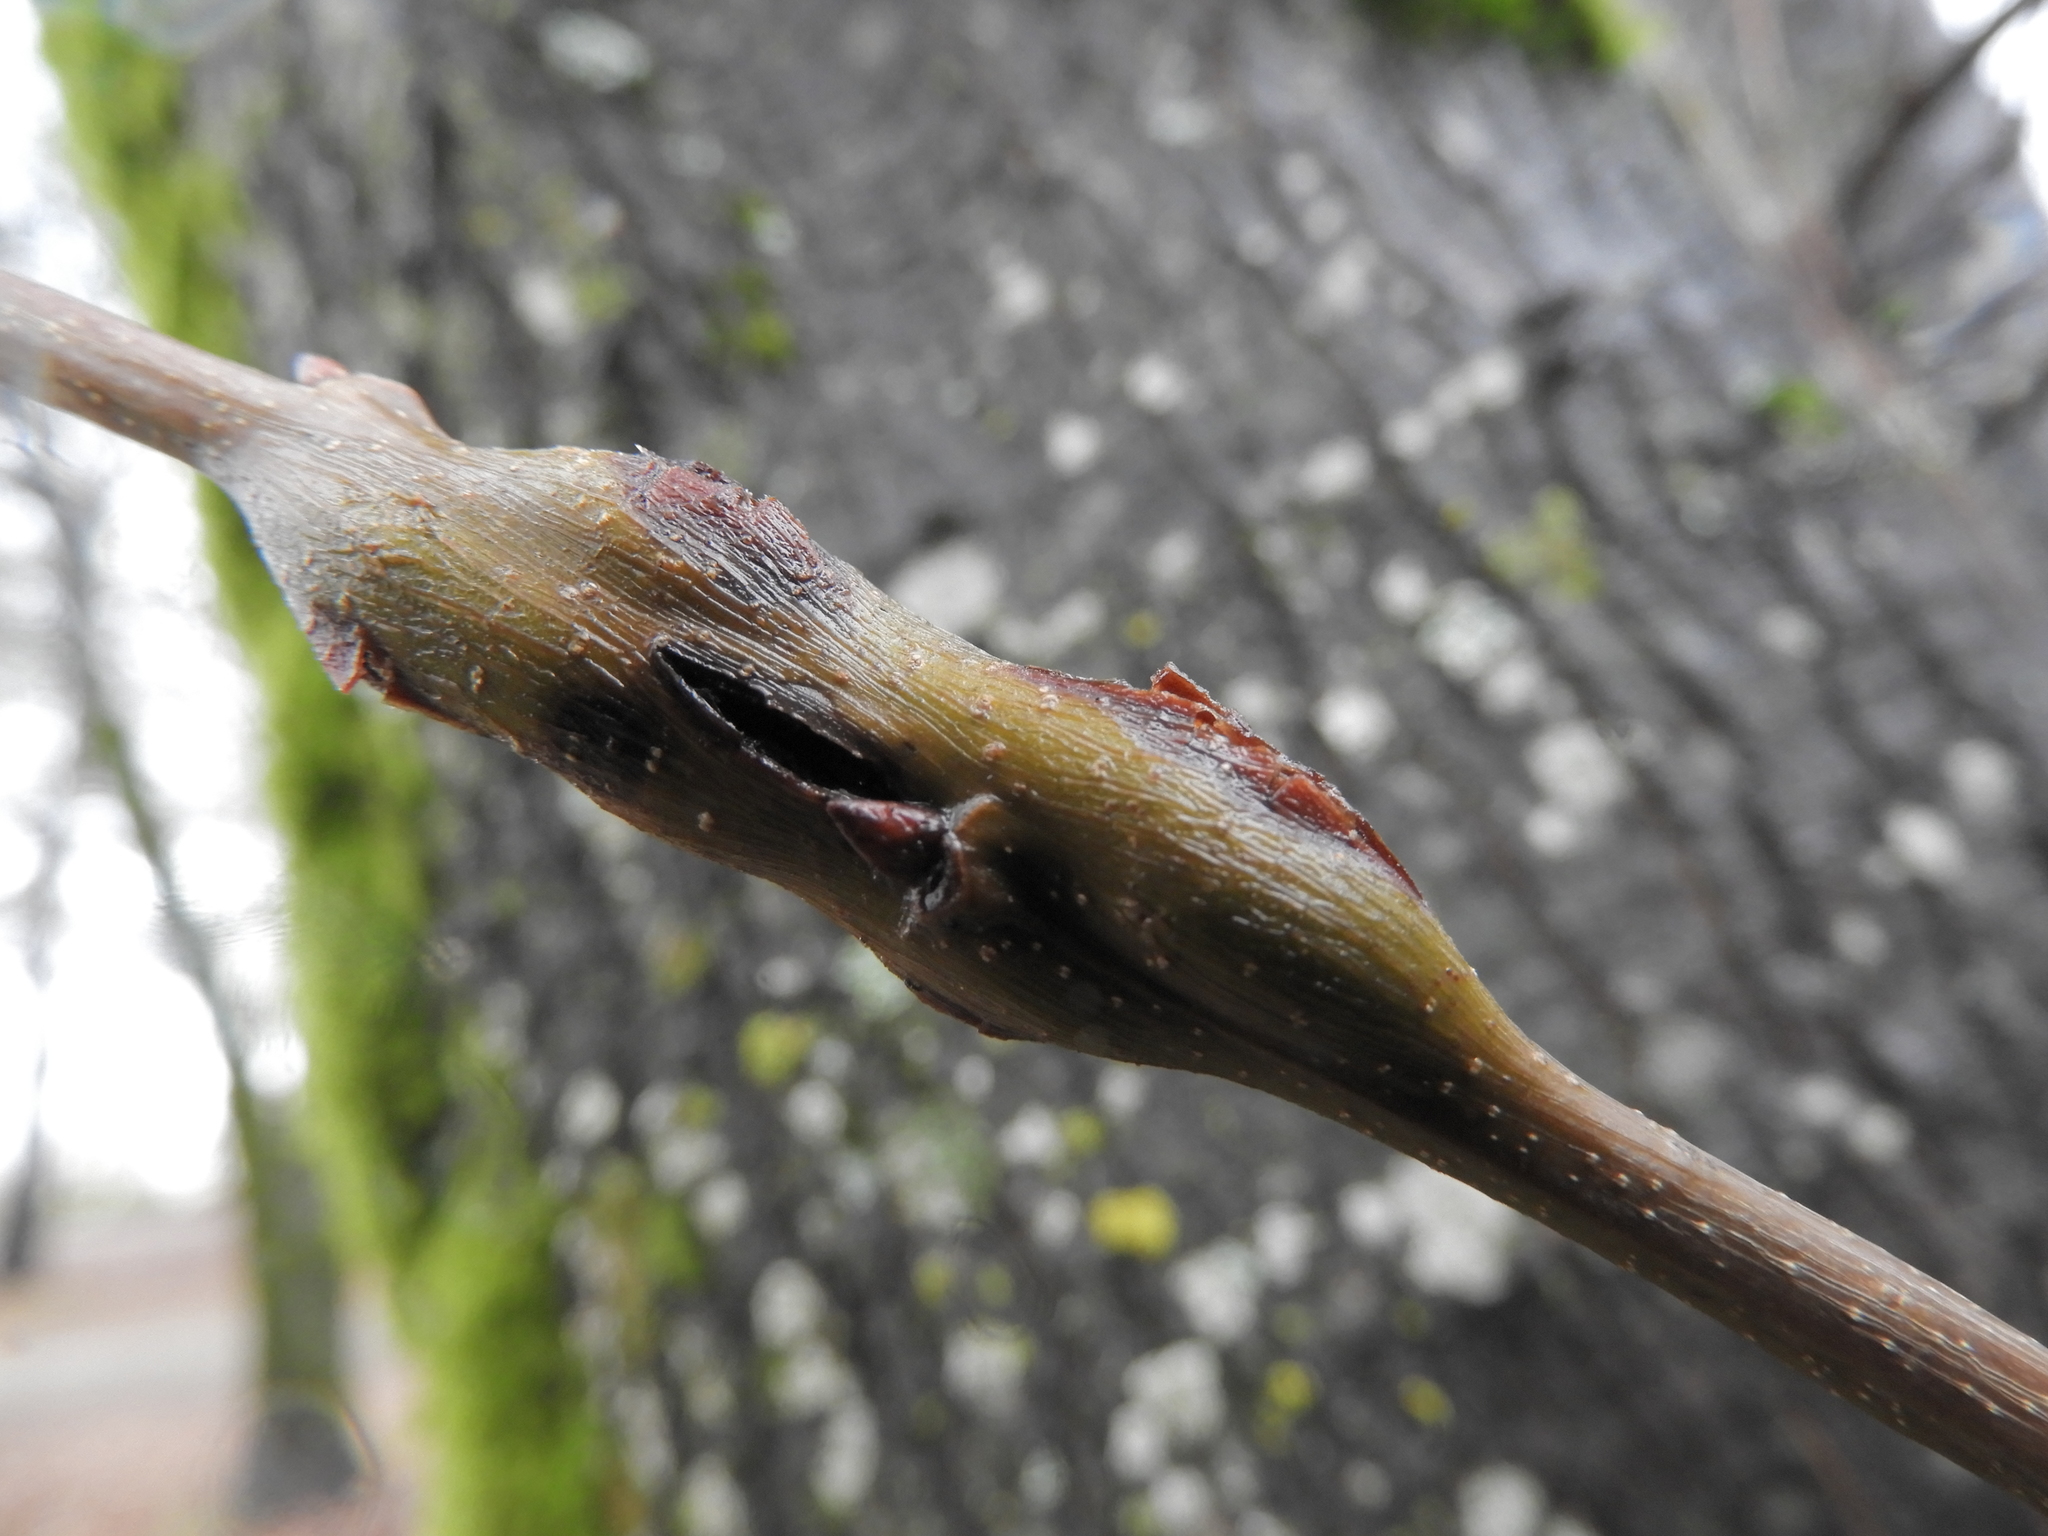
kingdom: Animalia
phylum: Arthropoda
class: Insecta
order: Hymenoptera
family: Cynipidae
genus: Callirhytis
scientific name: Callirhytis
